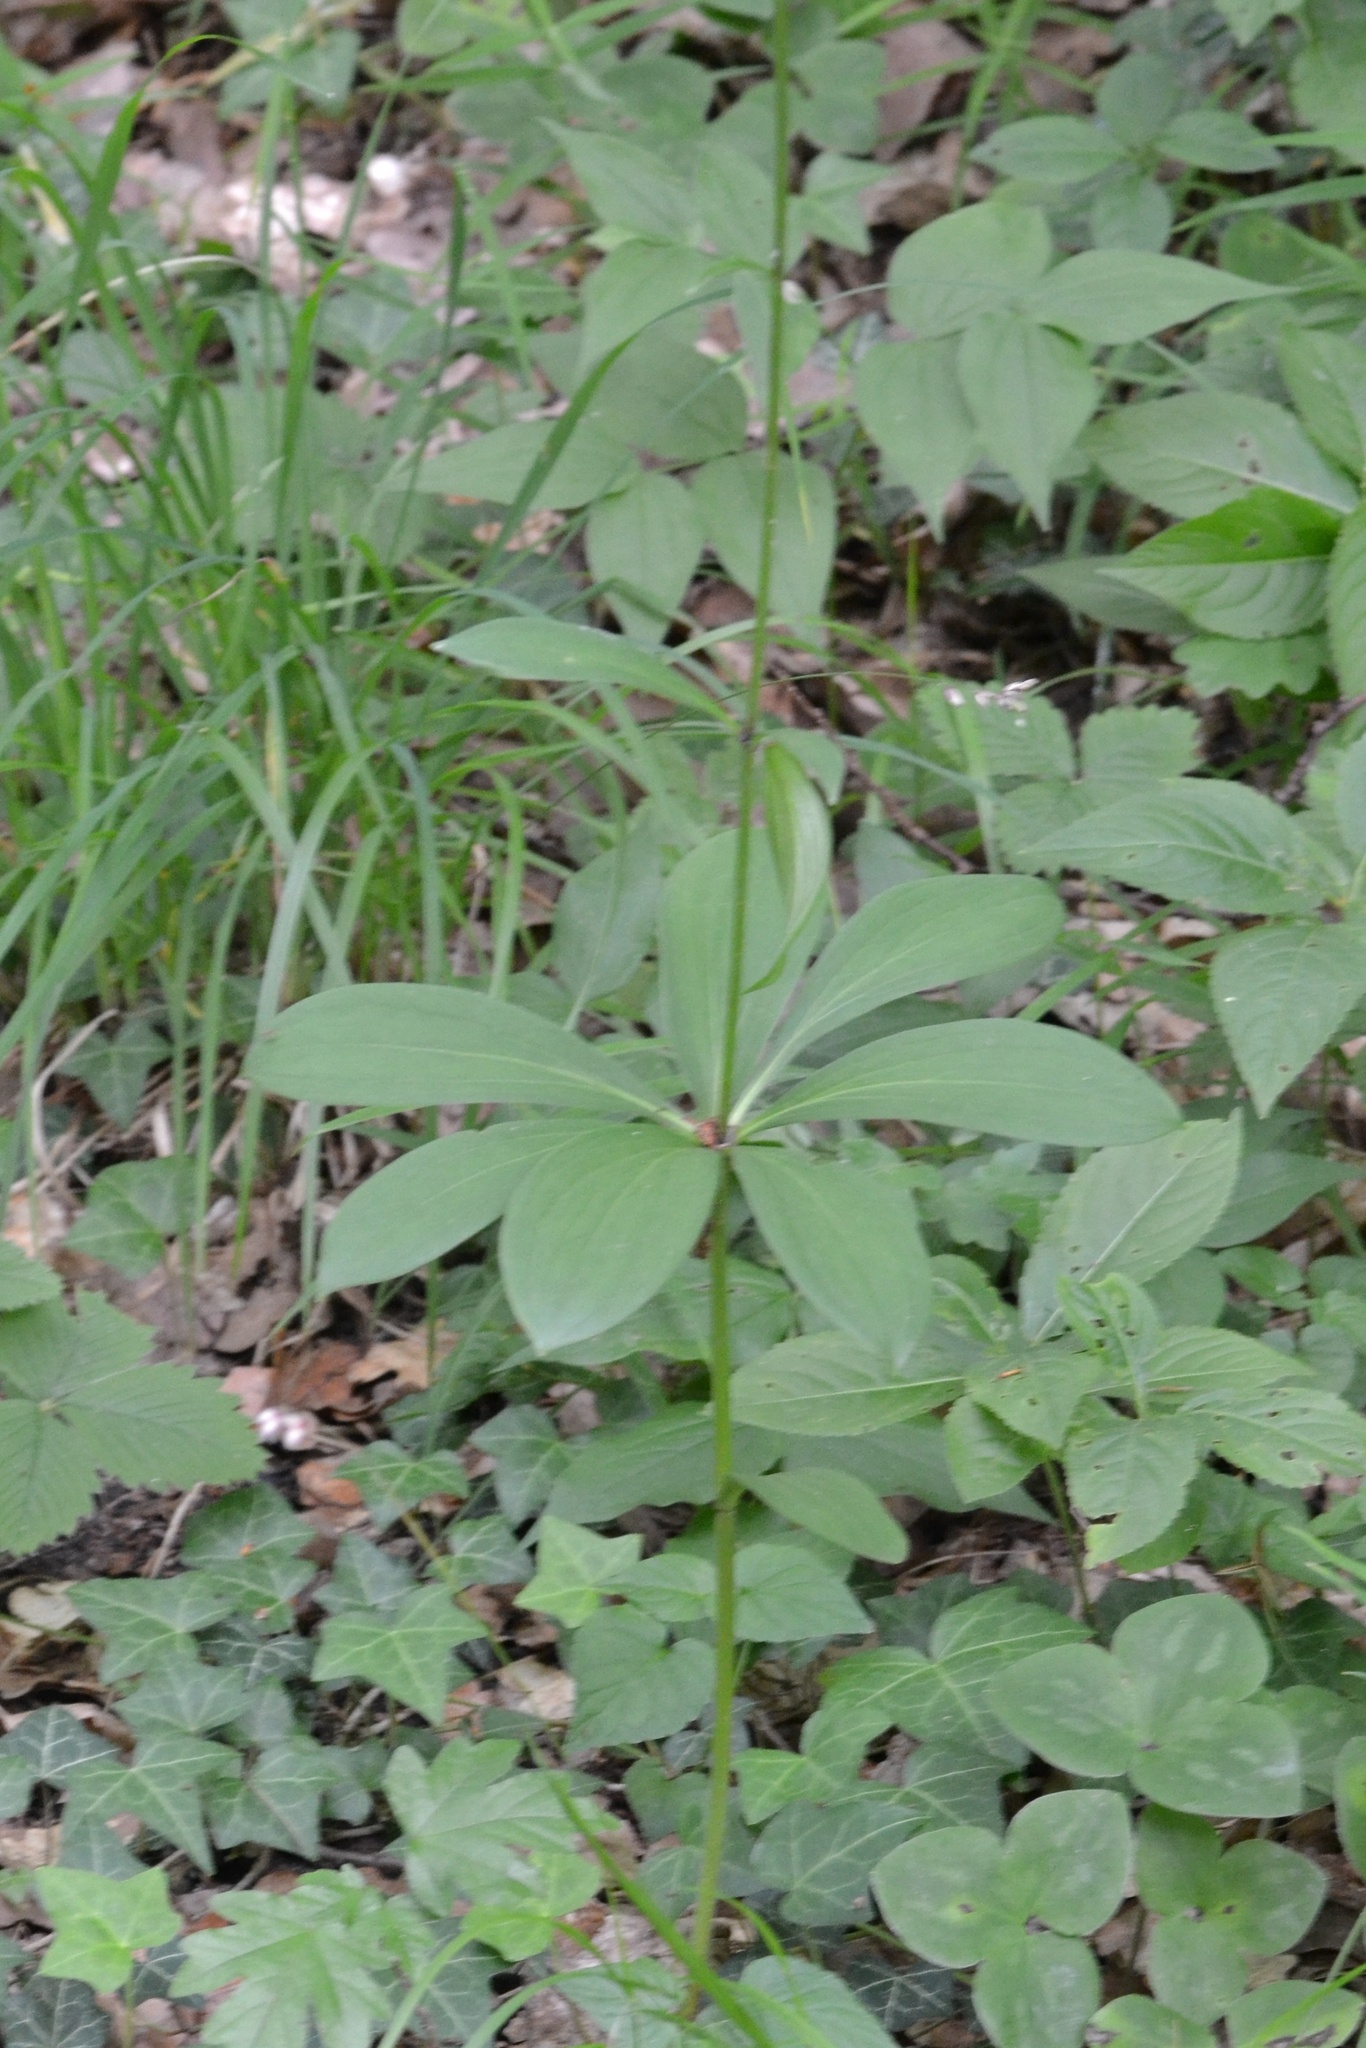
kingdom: Plantae
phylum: Tracheophyta
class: Liliopsida
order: Liliales
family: Liliaceae
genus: Lilium
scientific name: Lilium martagon
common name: Martagon lily
